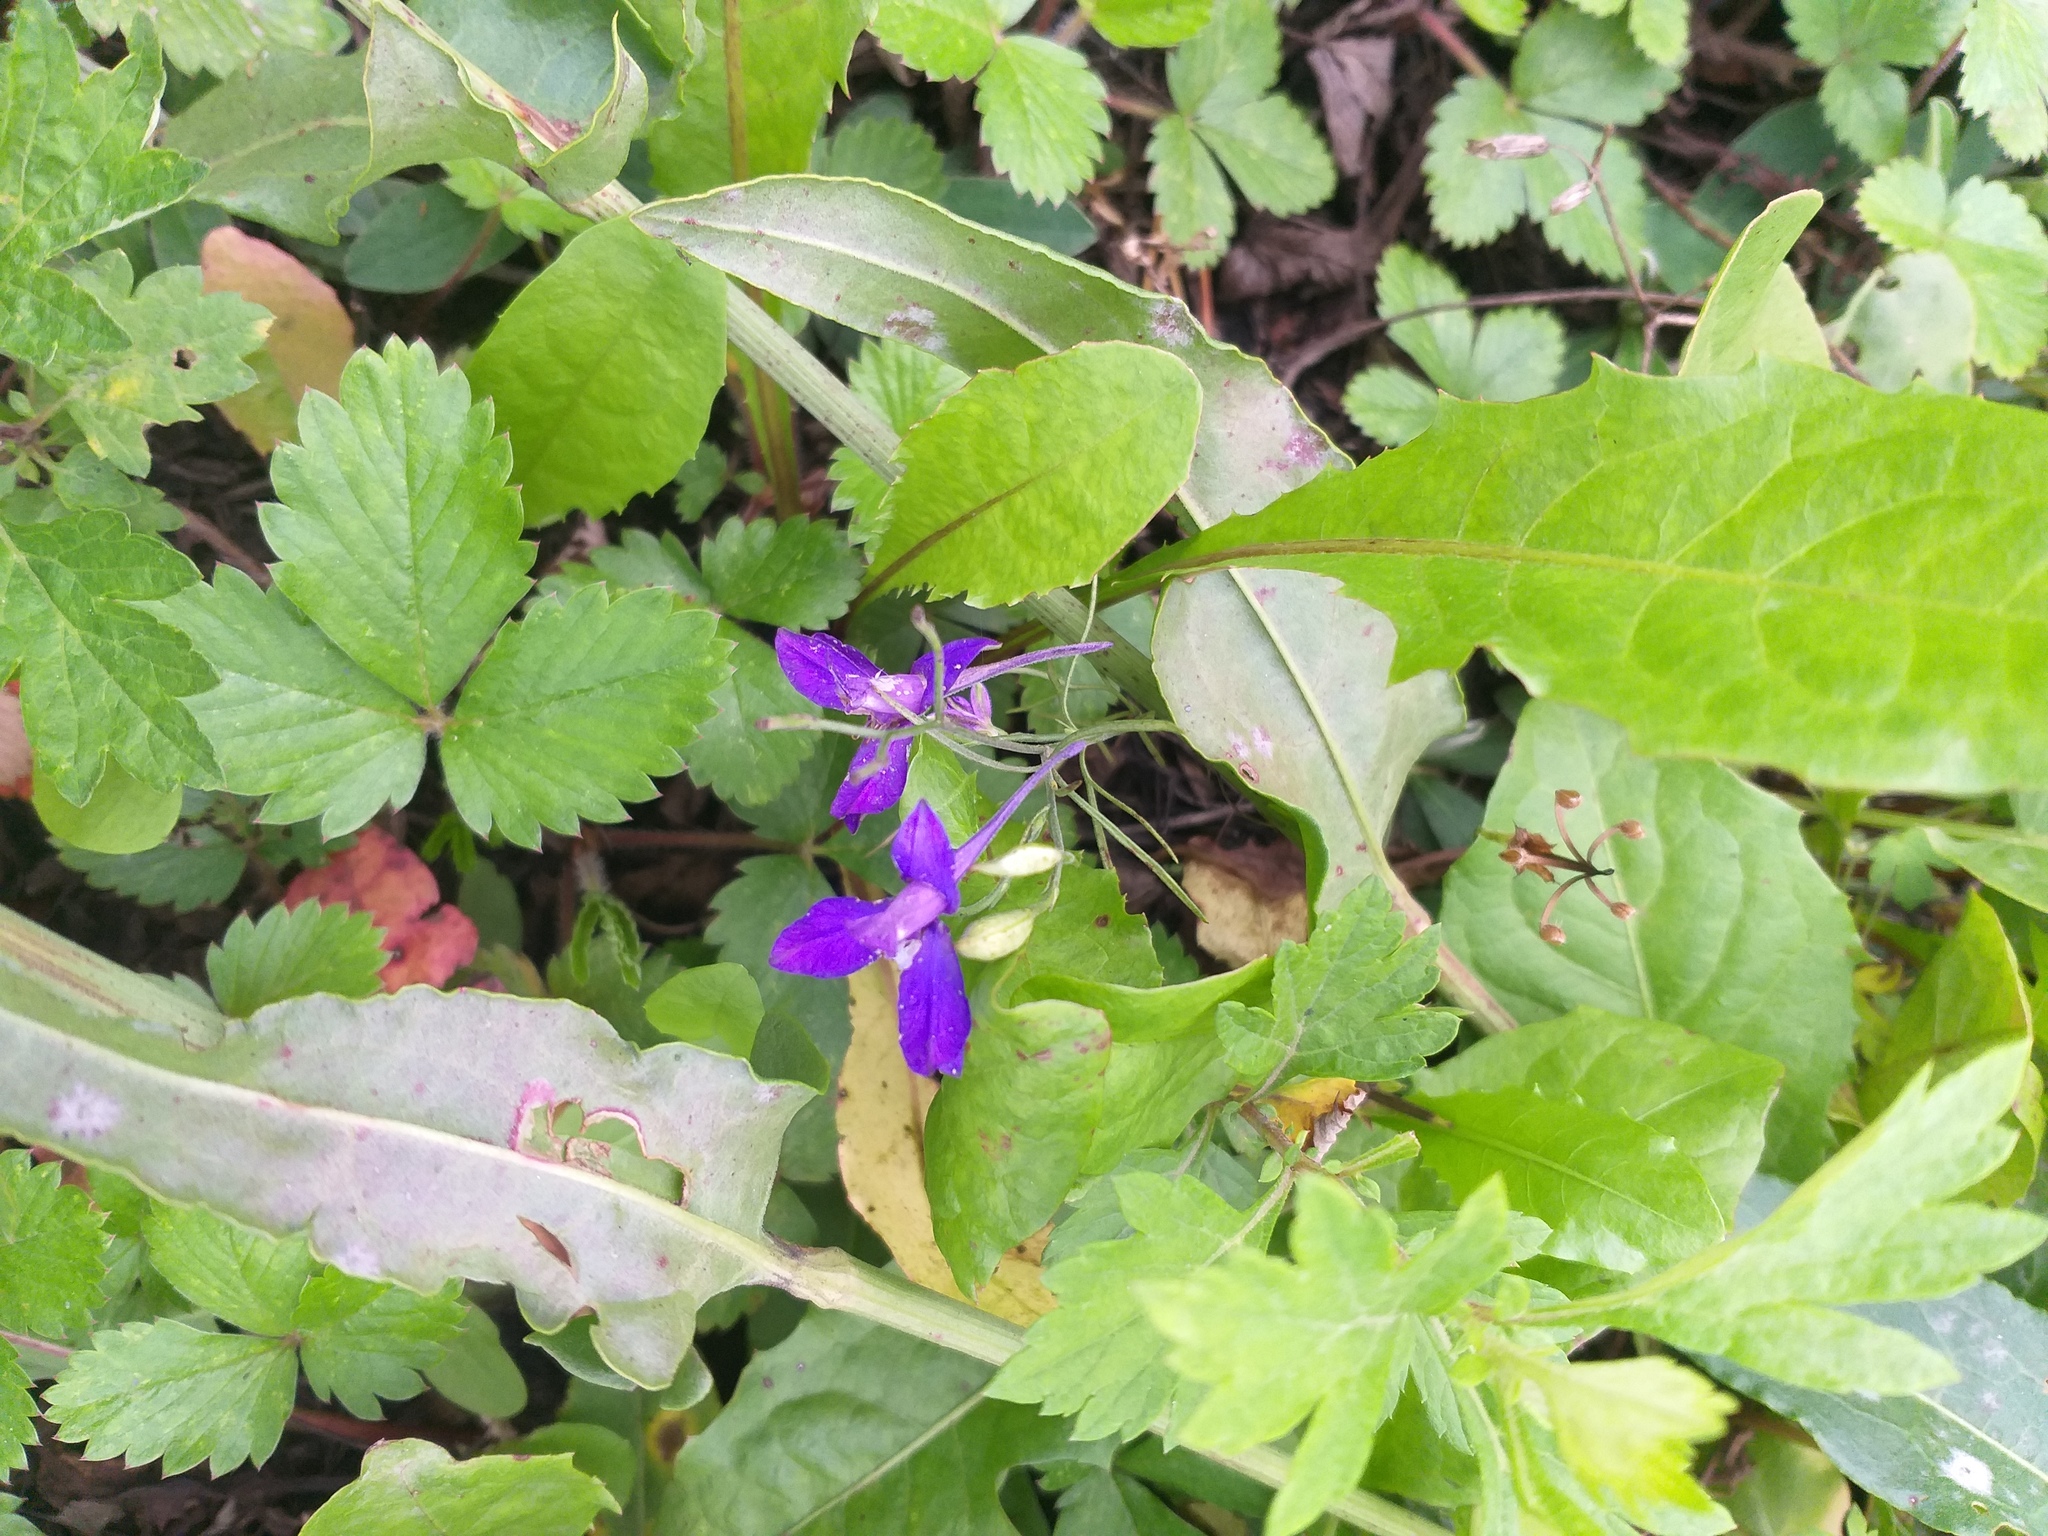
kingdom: Plantae
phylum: Tracheophyta
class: Magnoliopsida
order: Ranunculales
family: Ranunculaceae
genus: Delphinium
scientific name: Delphinium consolida
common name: Branching larkspur
